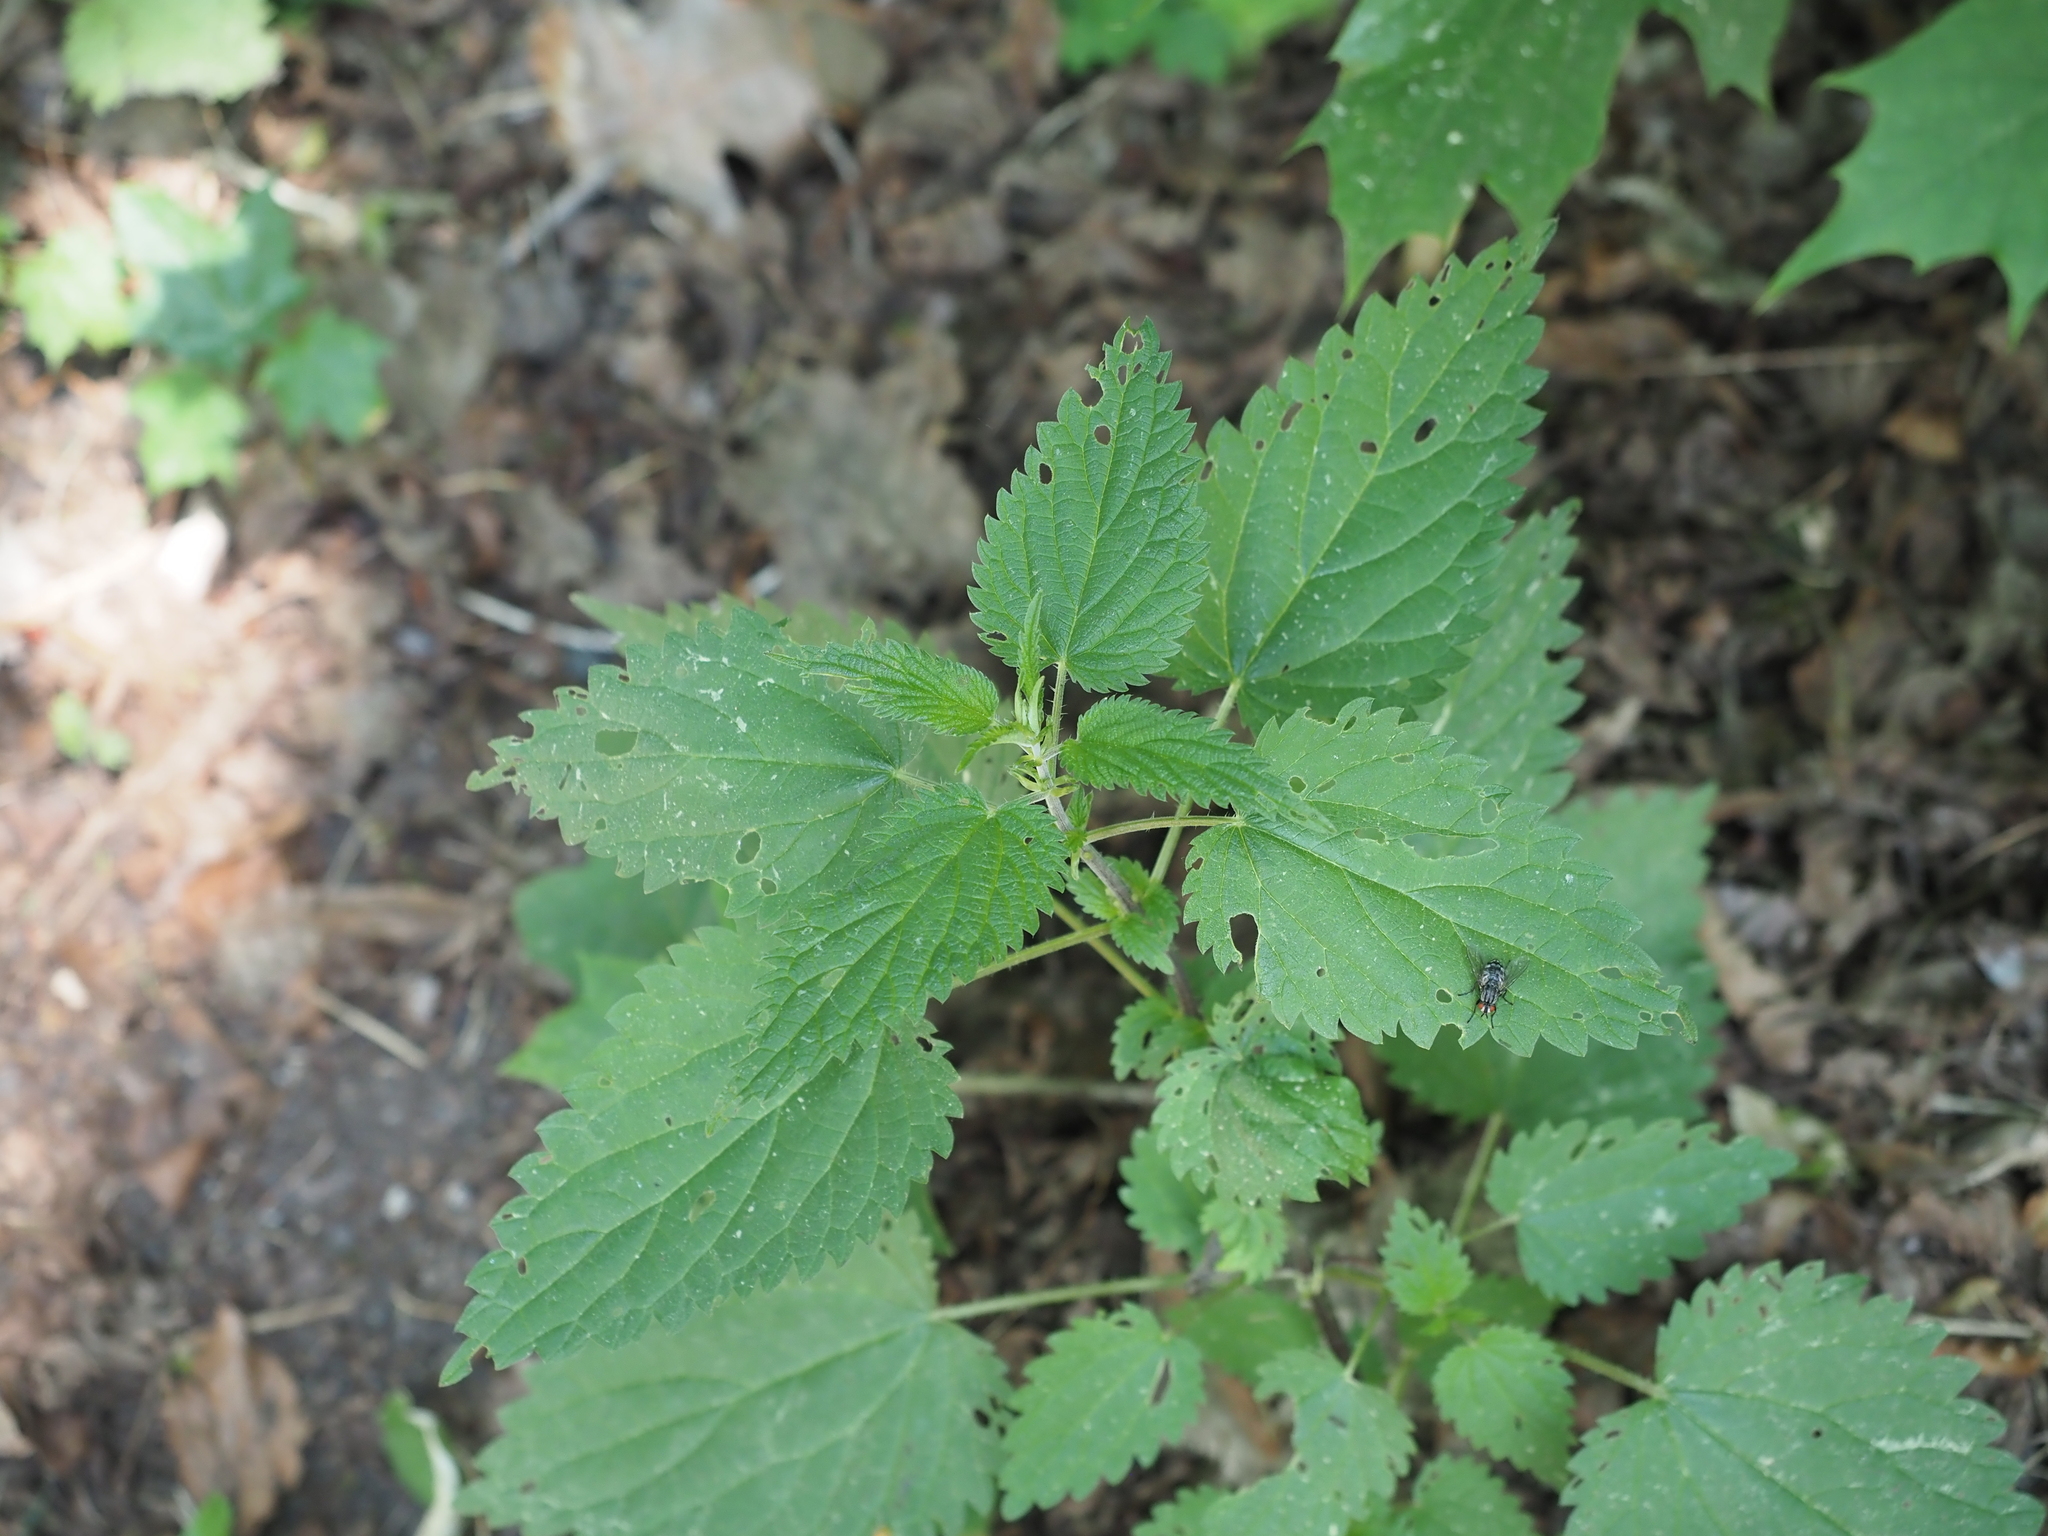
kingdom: Plantae
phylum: Tracheophyta
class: Magnoliopsida
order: Rosales
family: Urticaceae
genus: Urtica
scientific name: Urtica dioica
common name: Common nettle
